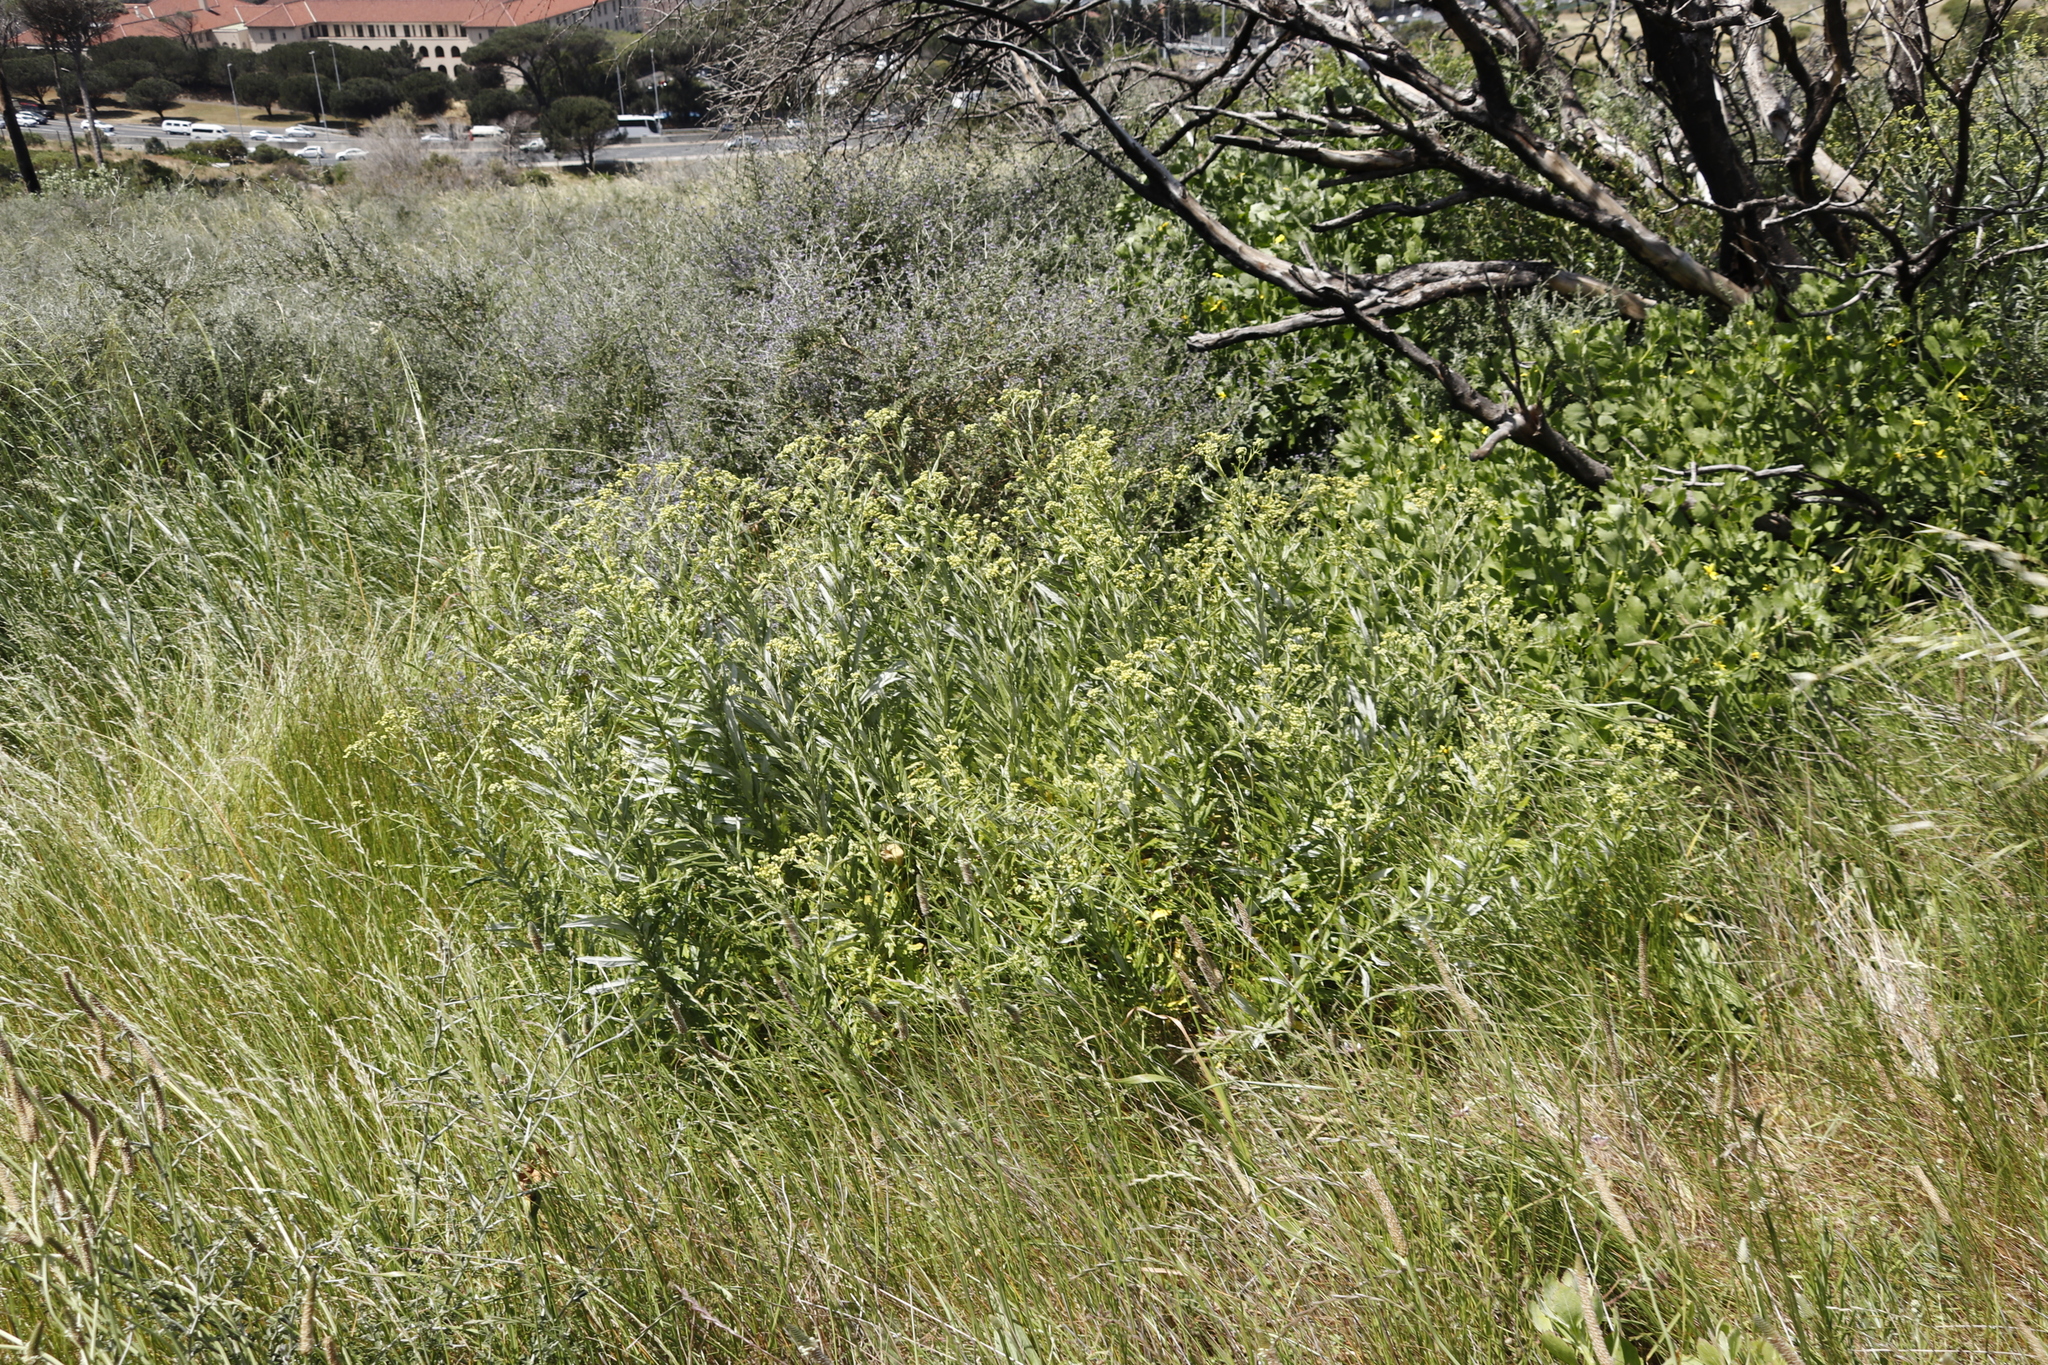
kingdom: Plantae
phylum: Tracheophyta
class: Magnoliopsida
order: Asterales
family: Asteraceae
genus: Senecio
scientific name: Senecio pterophorus
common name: Shoddy ragwort
